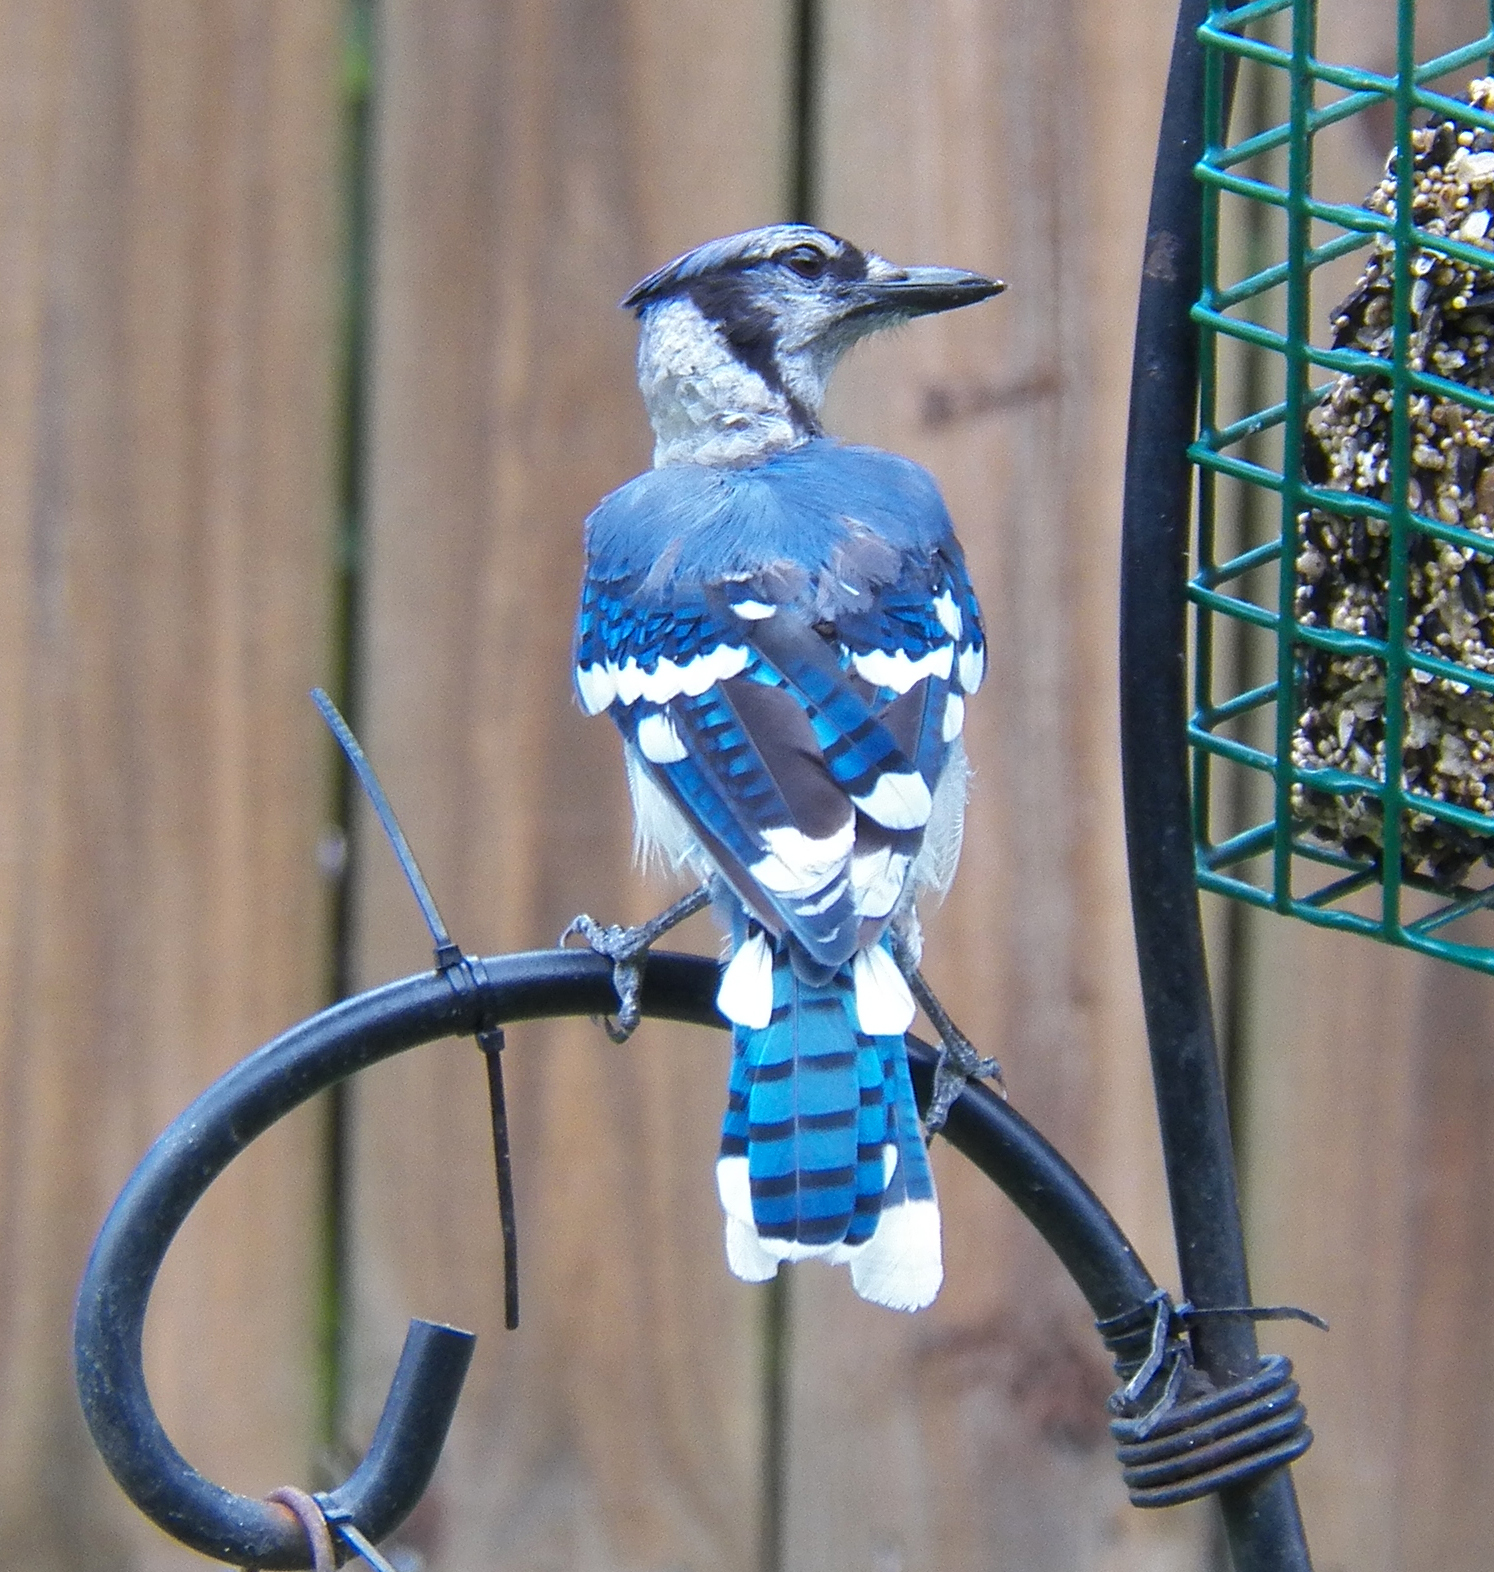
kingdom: Animalia
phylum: Chordata
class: Aves
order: Passeriformes
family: Corvidae
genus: Cyanocitta
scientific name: Cyanocitta cristata
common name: Blue jay
